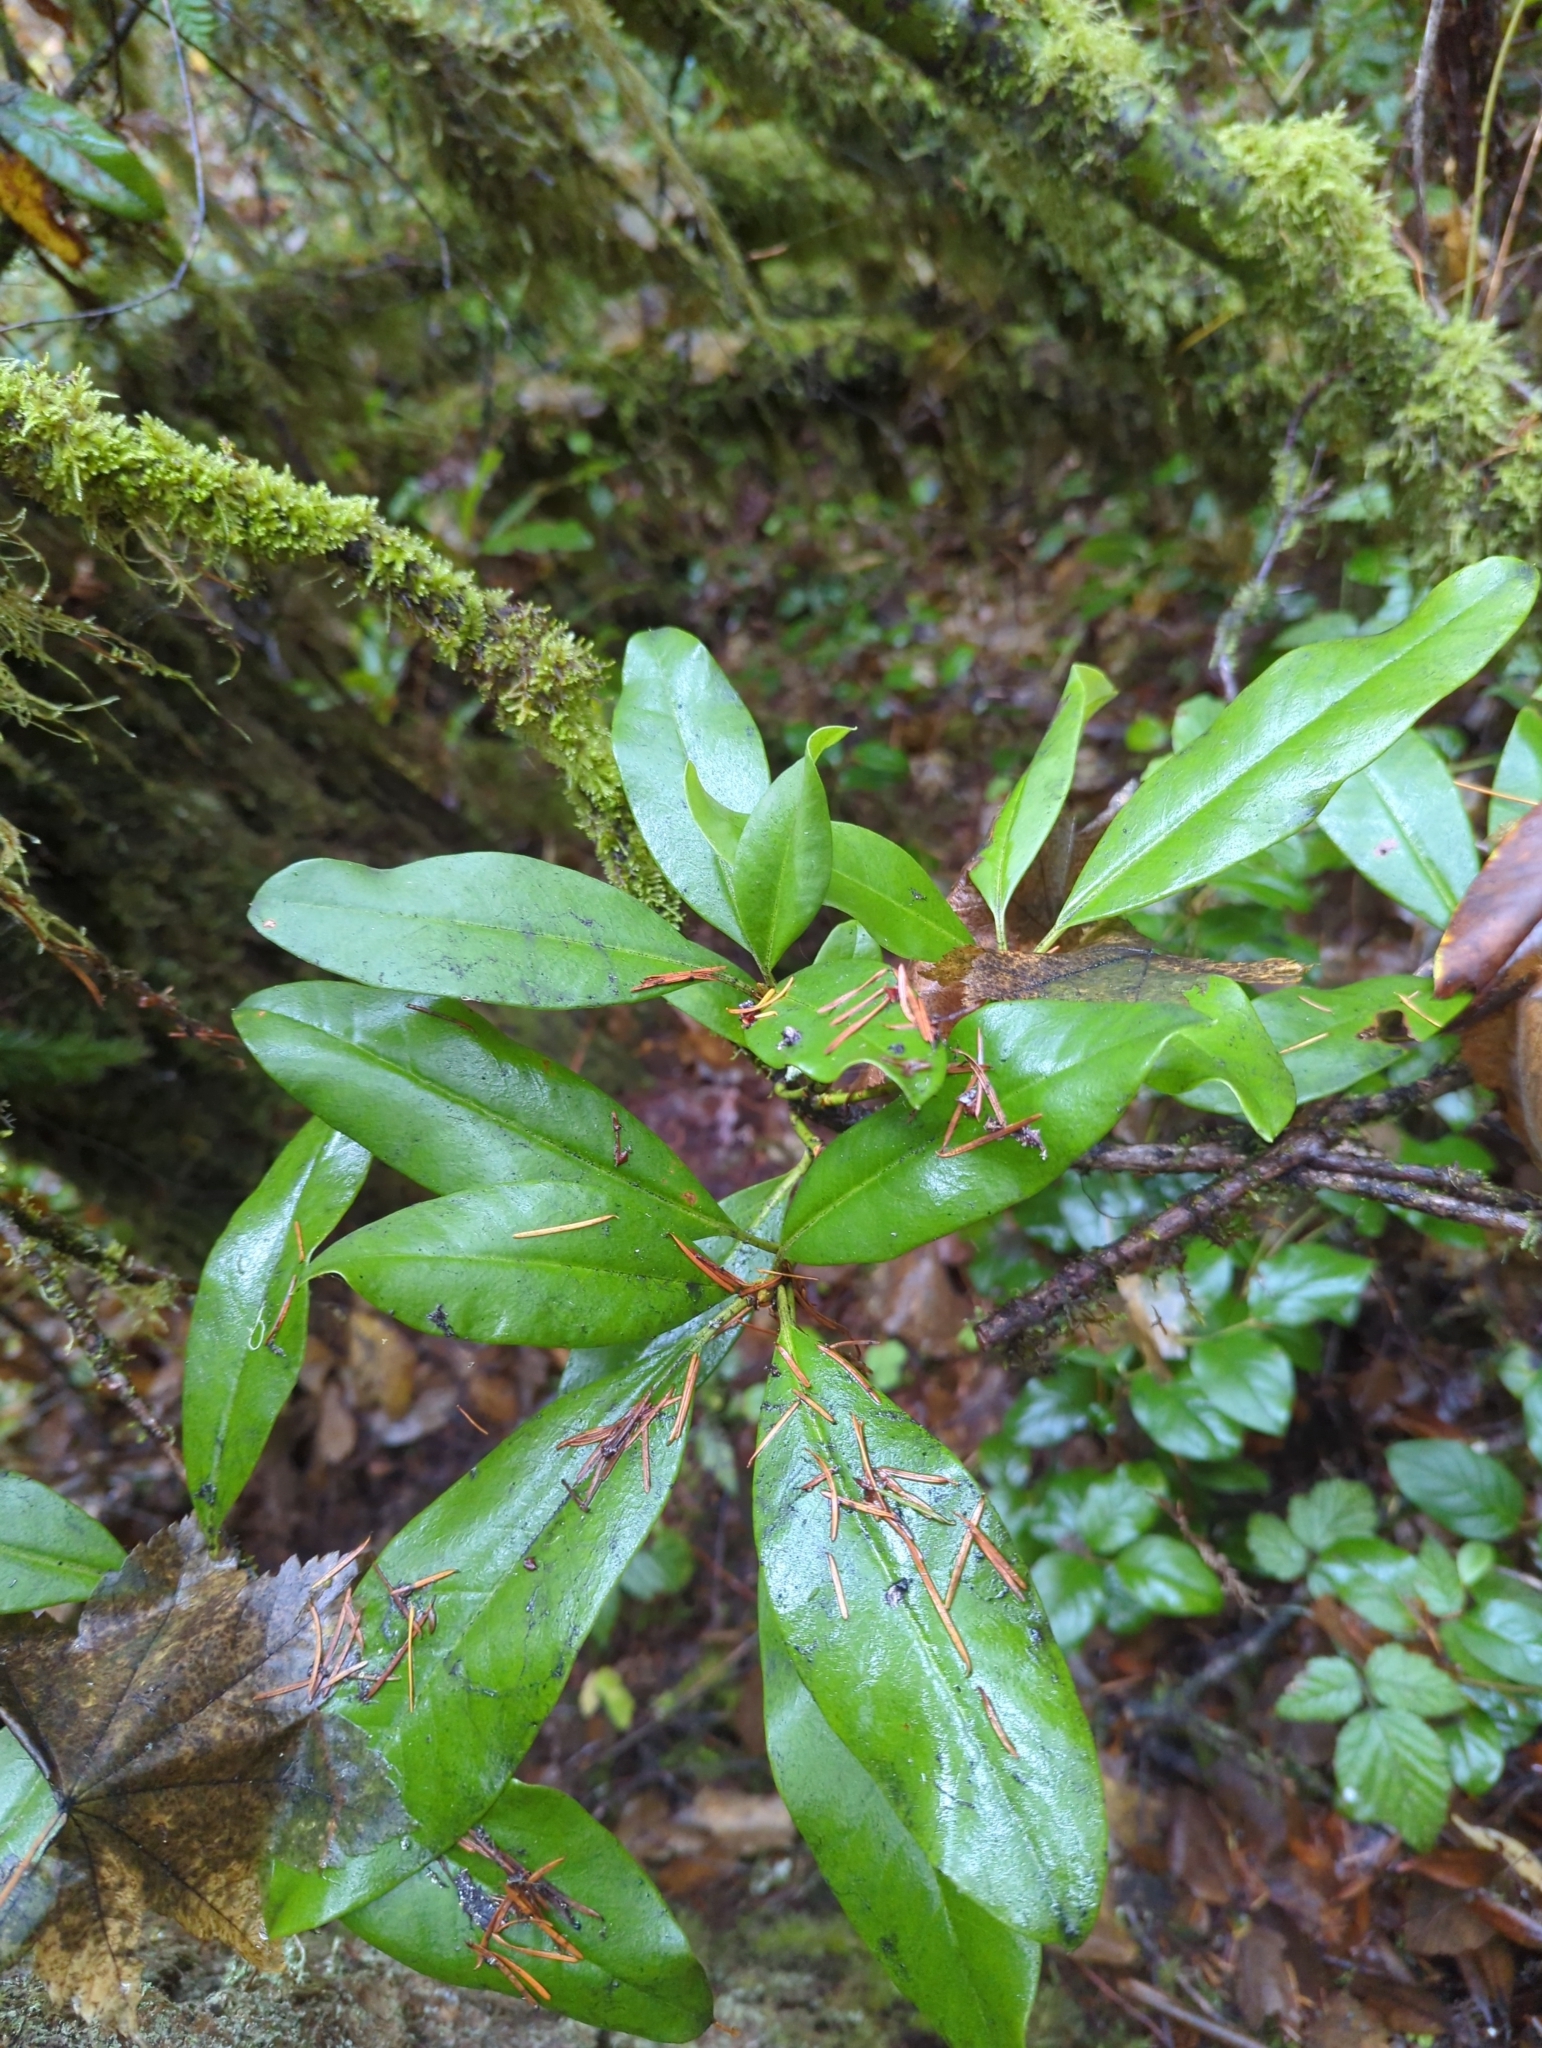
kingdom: Plantae
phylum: Tracheophyta
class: Magnoliopsida
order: Ericales
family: Ericaceae
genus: Rhododendron
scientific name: Rhododendron macrophyllum
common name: California rose bay
